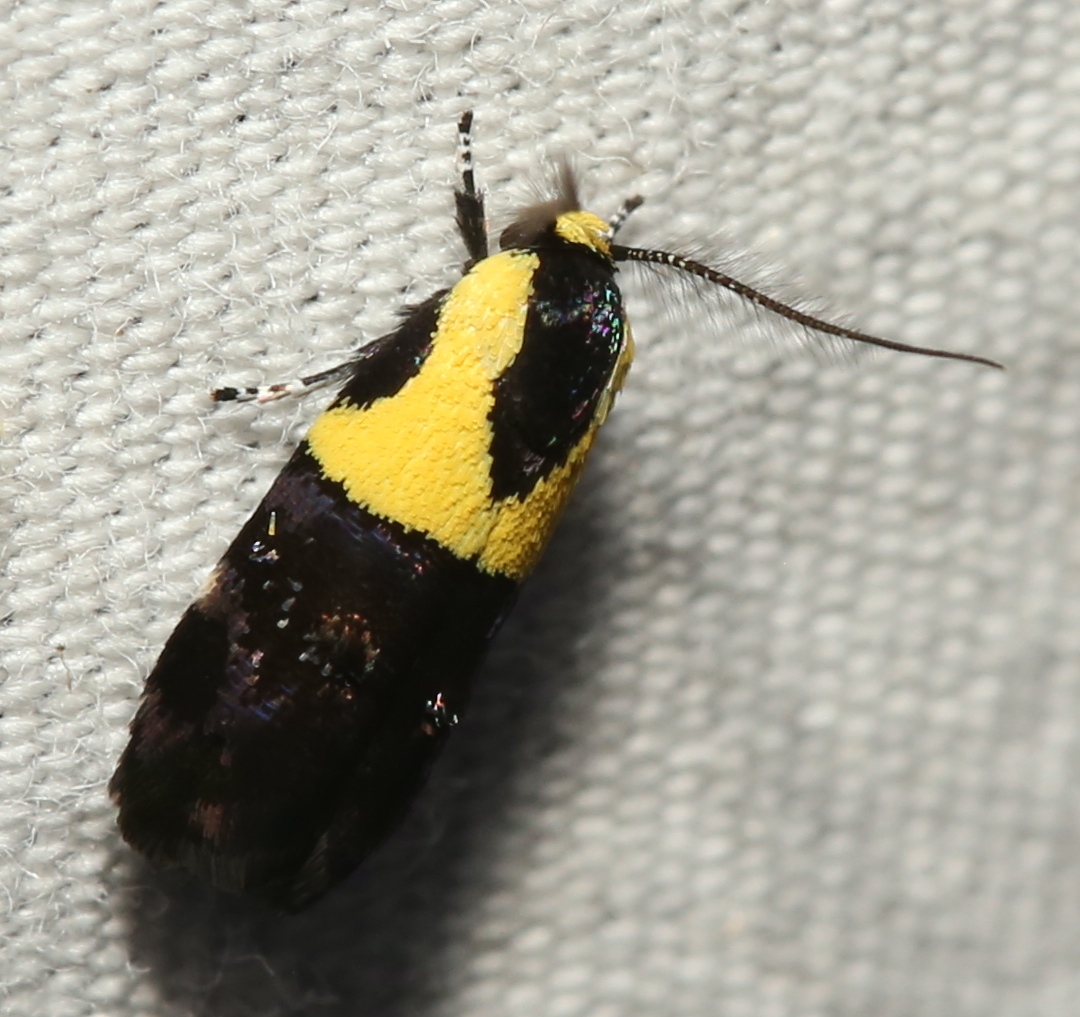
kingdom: Animalia
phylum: Arthropoda
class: Insecta
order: Lepidoptera
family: Depressariidae
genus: Rectiostoma
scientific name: Rectiostoma xanthobasis
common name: Yellow-vested moth
